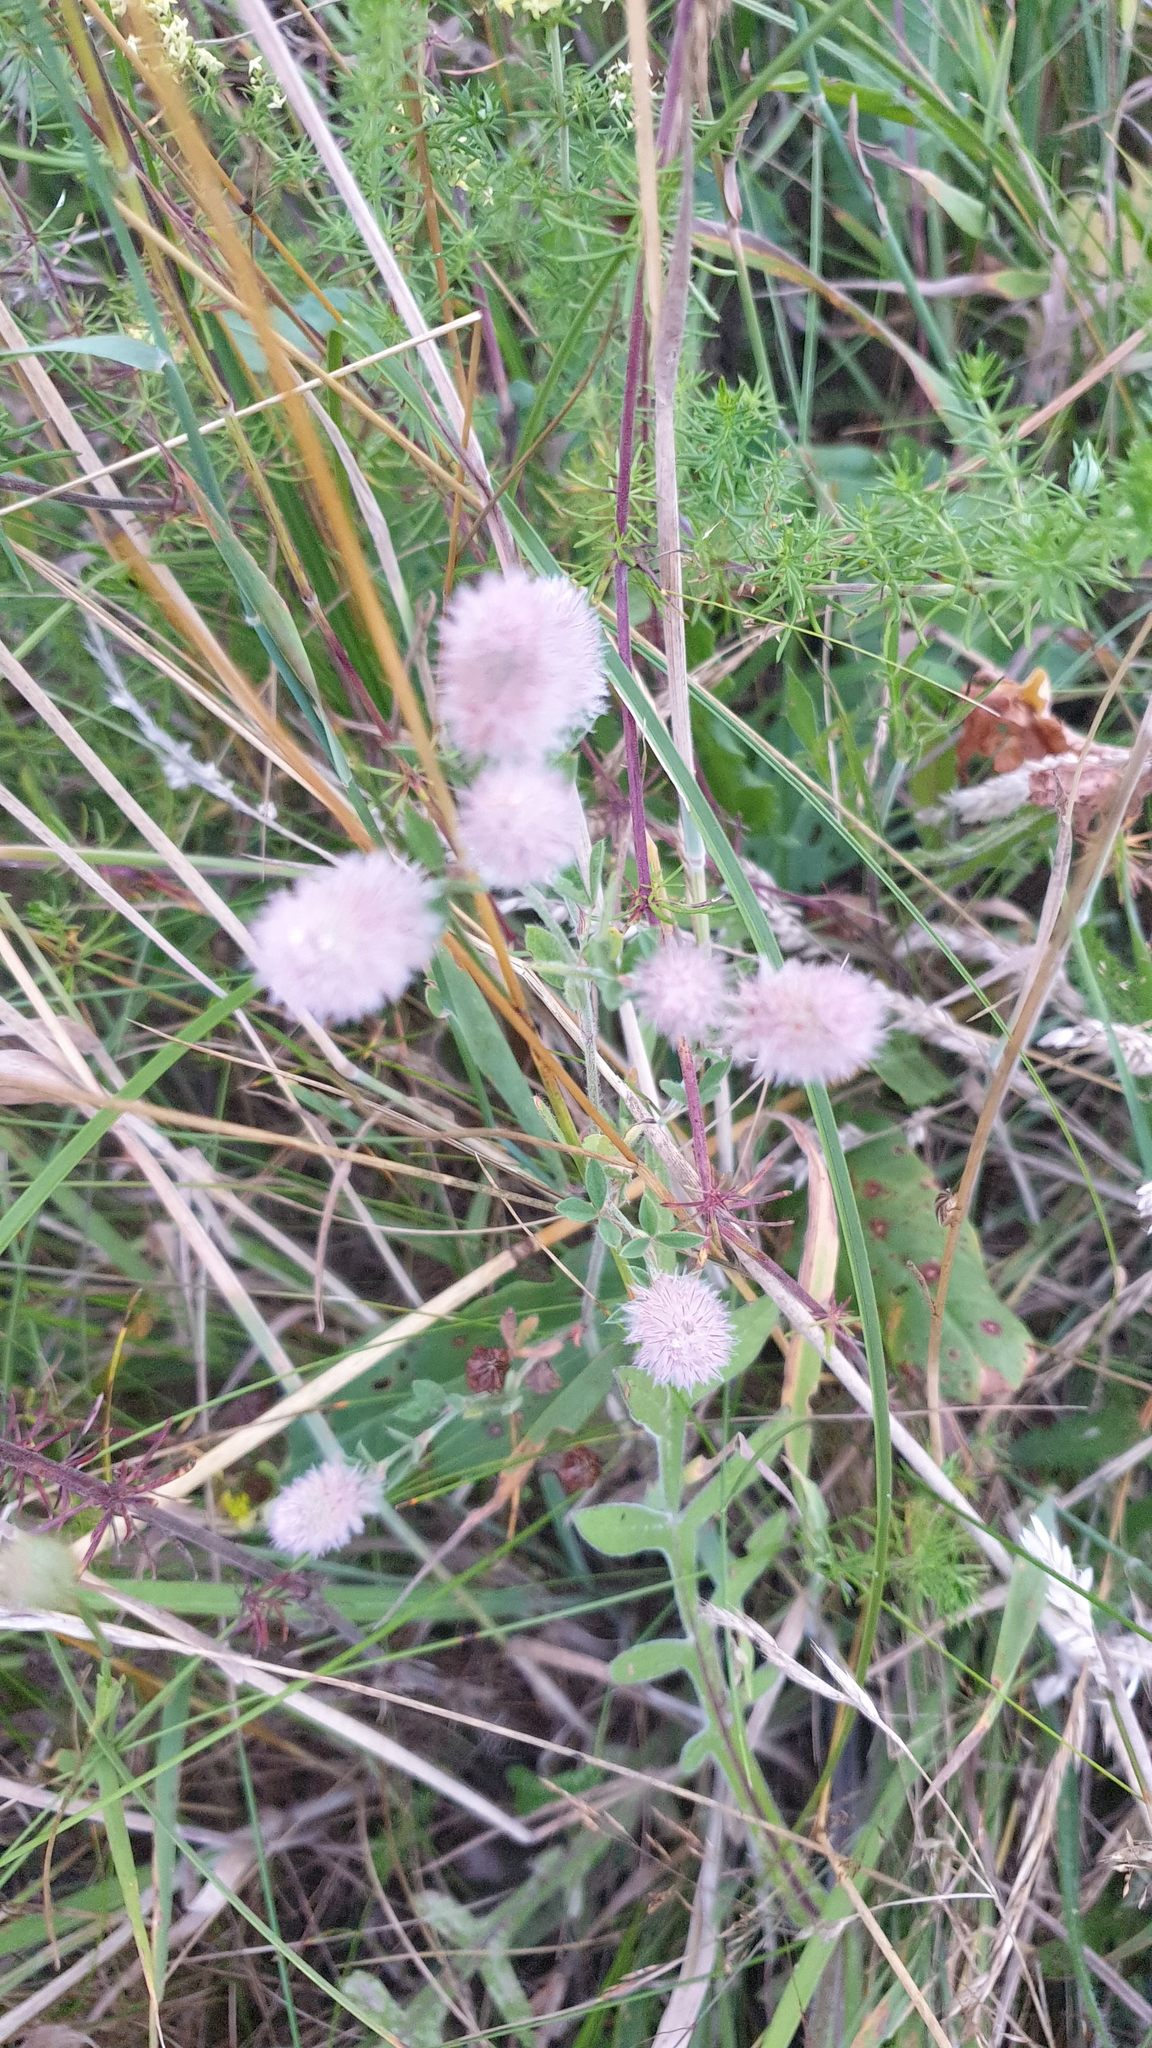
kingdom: Plantae
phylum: Tracheophyta
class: Magnoliopsida
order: Fabales
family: Fabaceae
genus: Trifolium
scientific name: Trifolium arvense
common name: Hare's-foot clover
